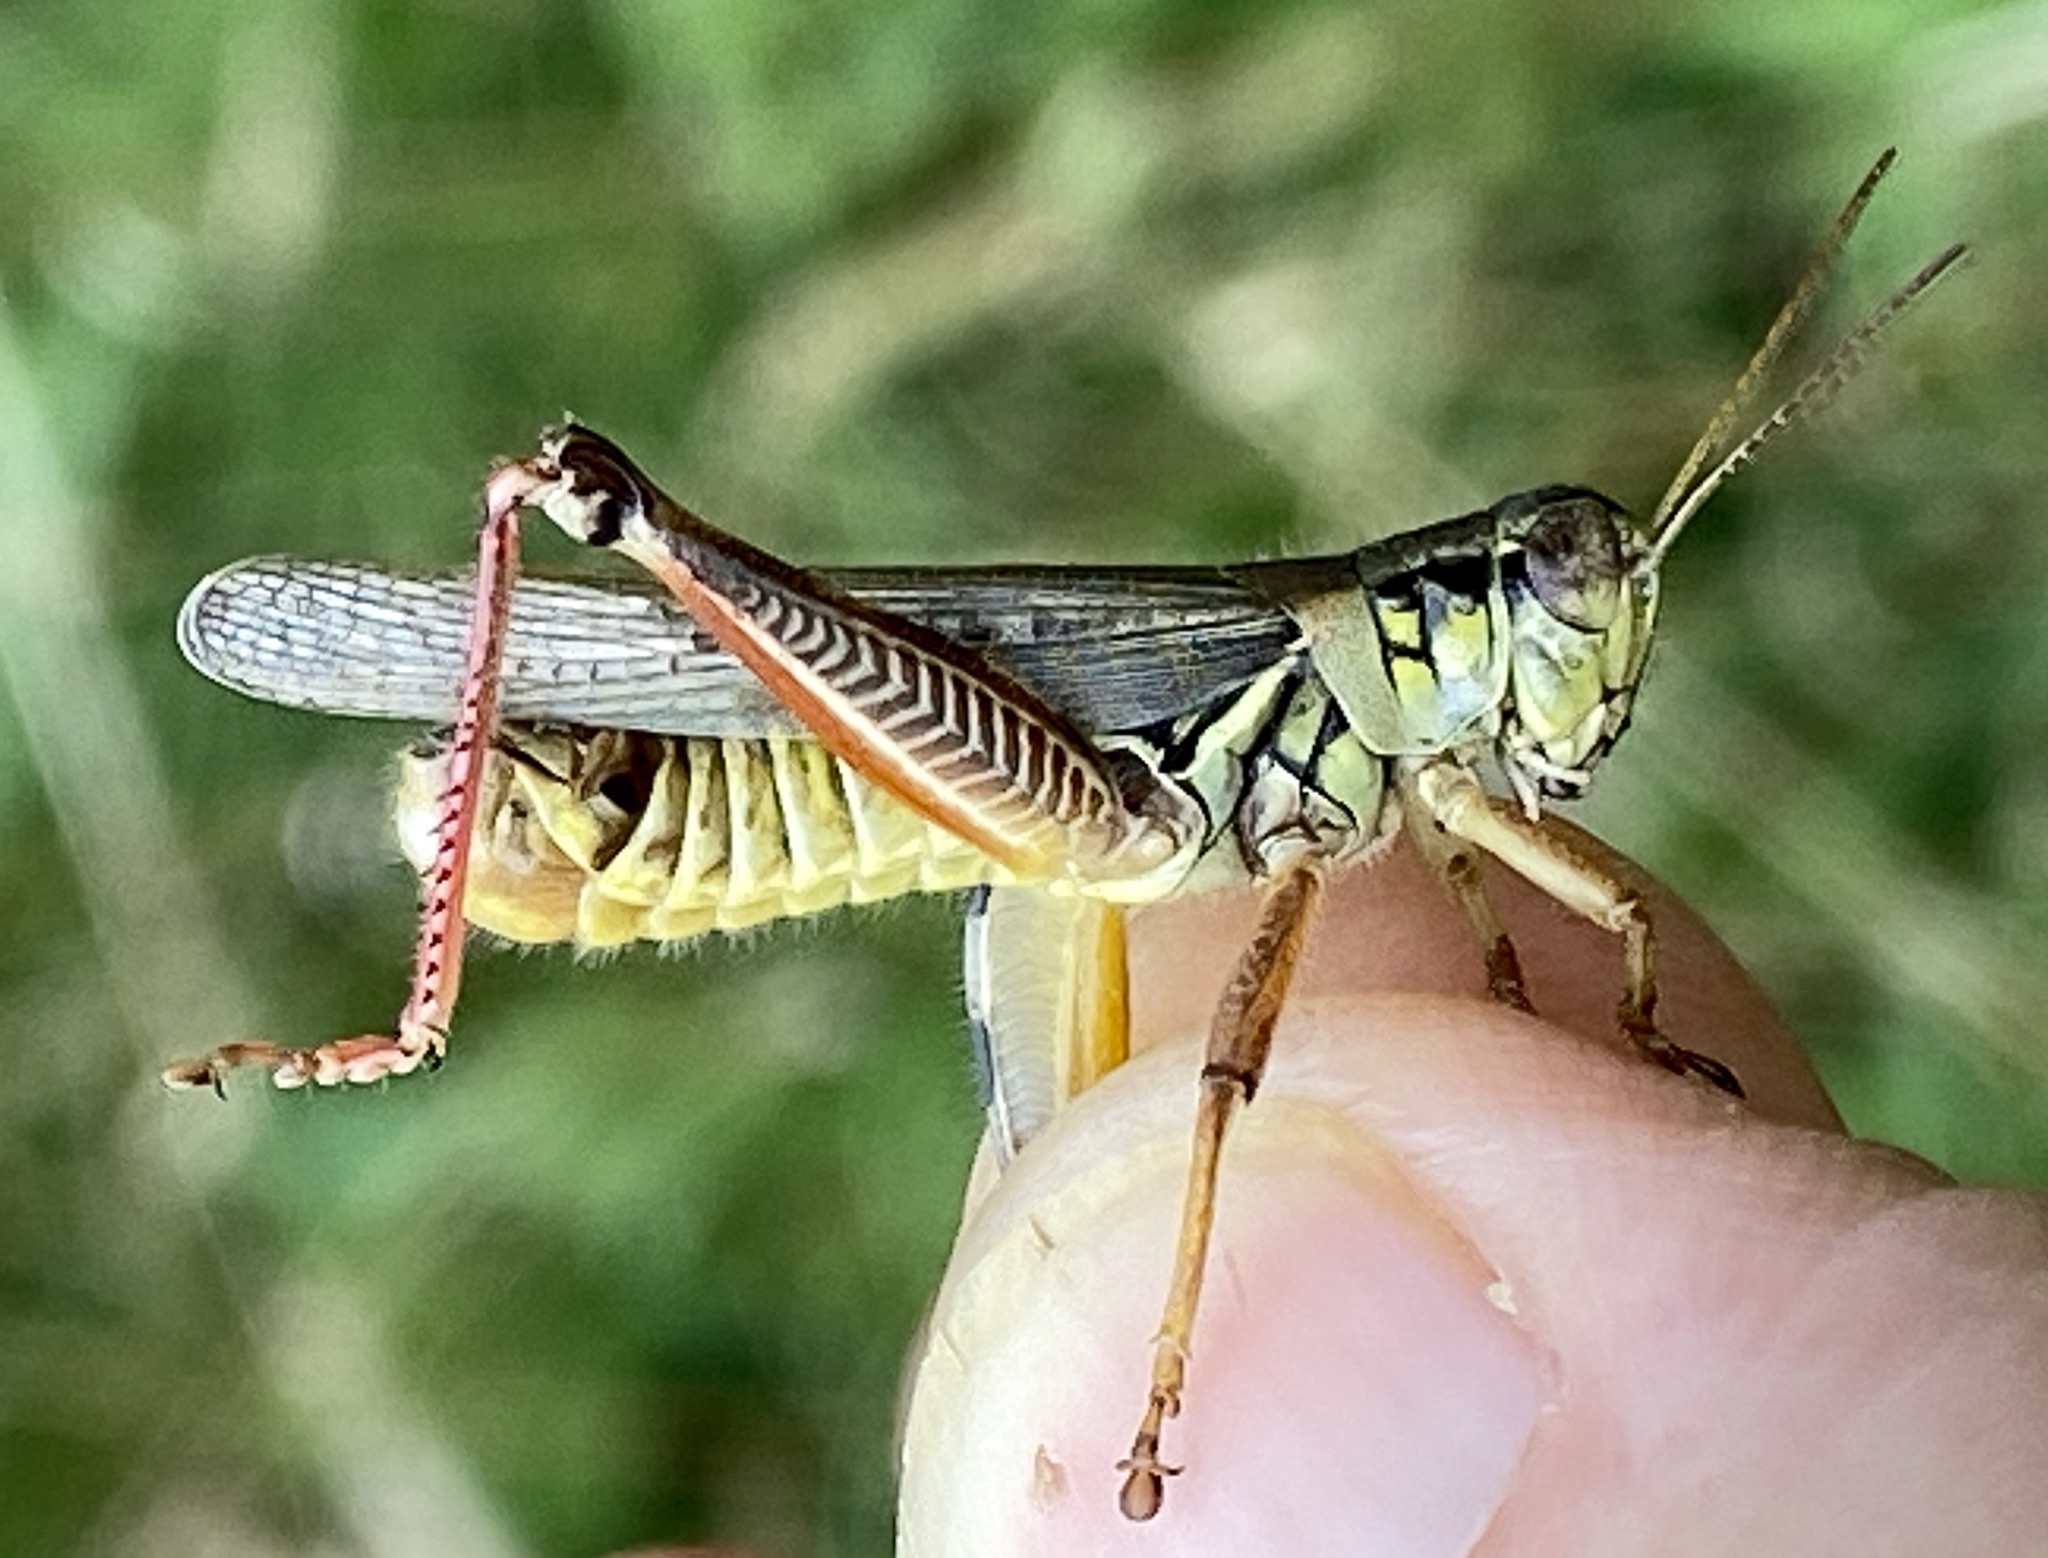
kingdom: Animalia
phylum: Arthropoda
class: Insecta
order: Orthoptera
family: Acrididae
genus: Melanoplus
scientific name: Melanoplus femurrubrum
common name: Red-legged grasshopper
